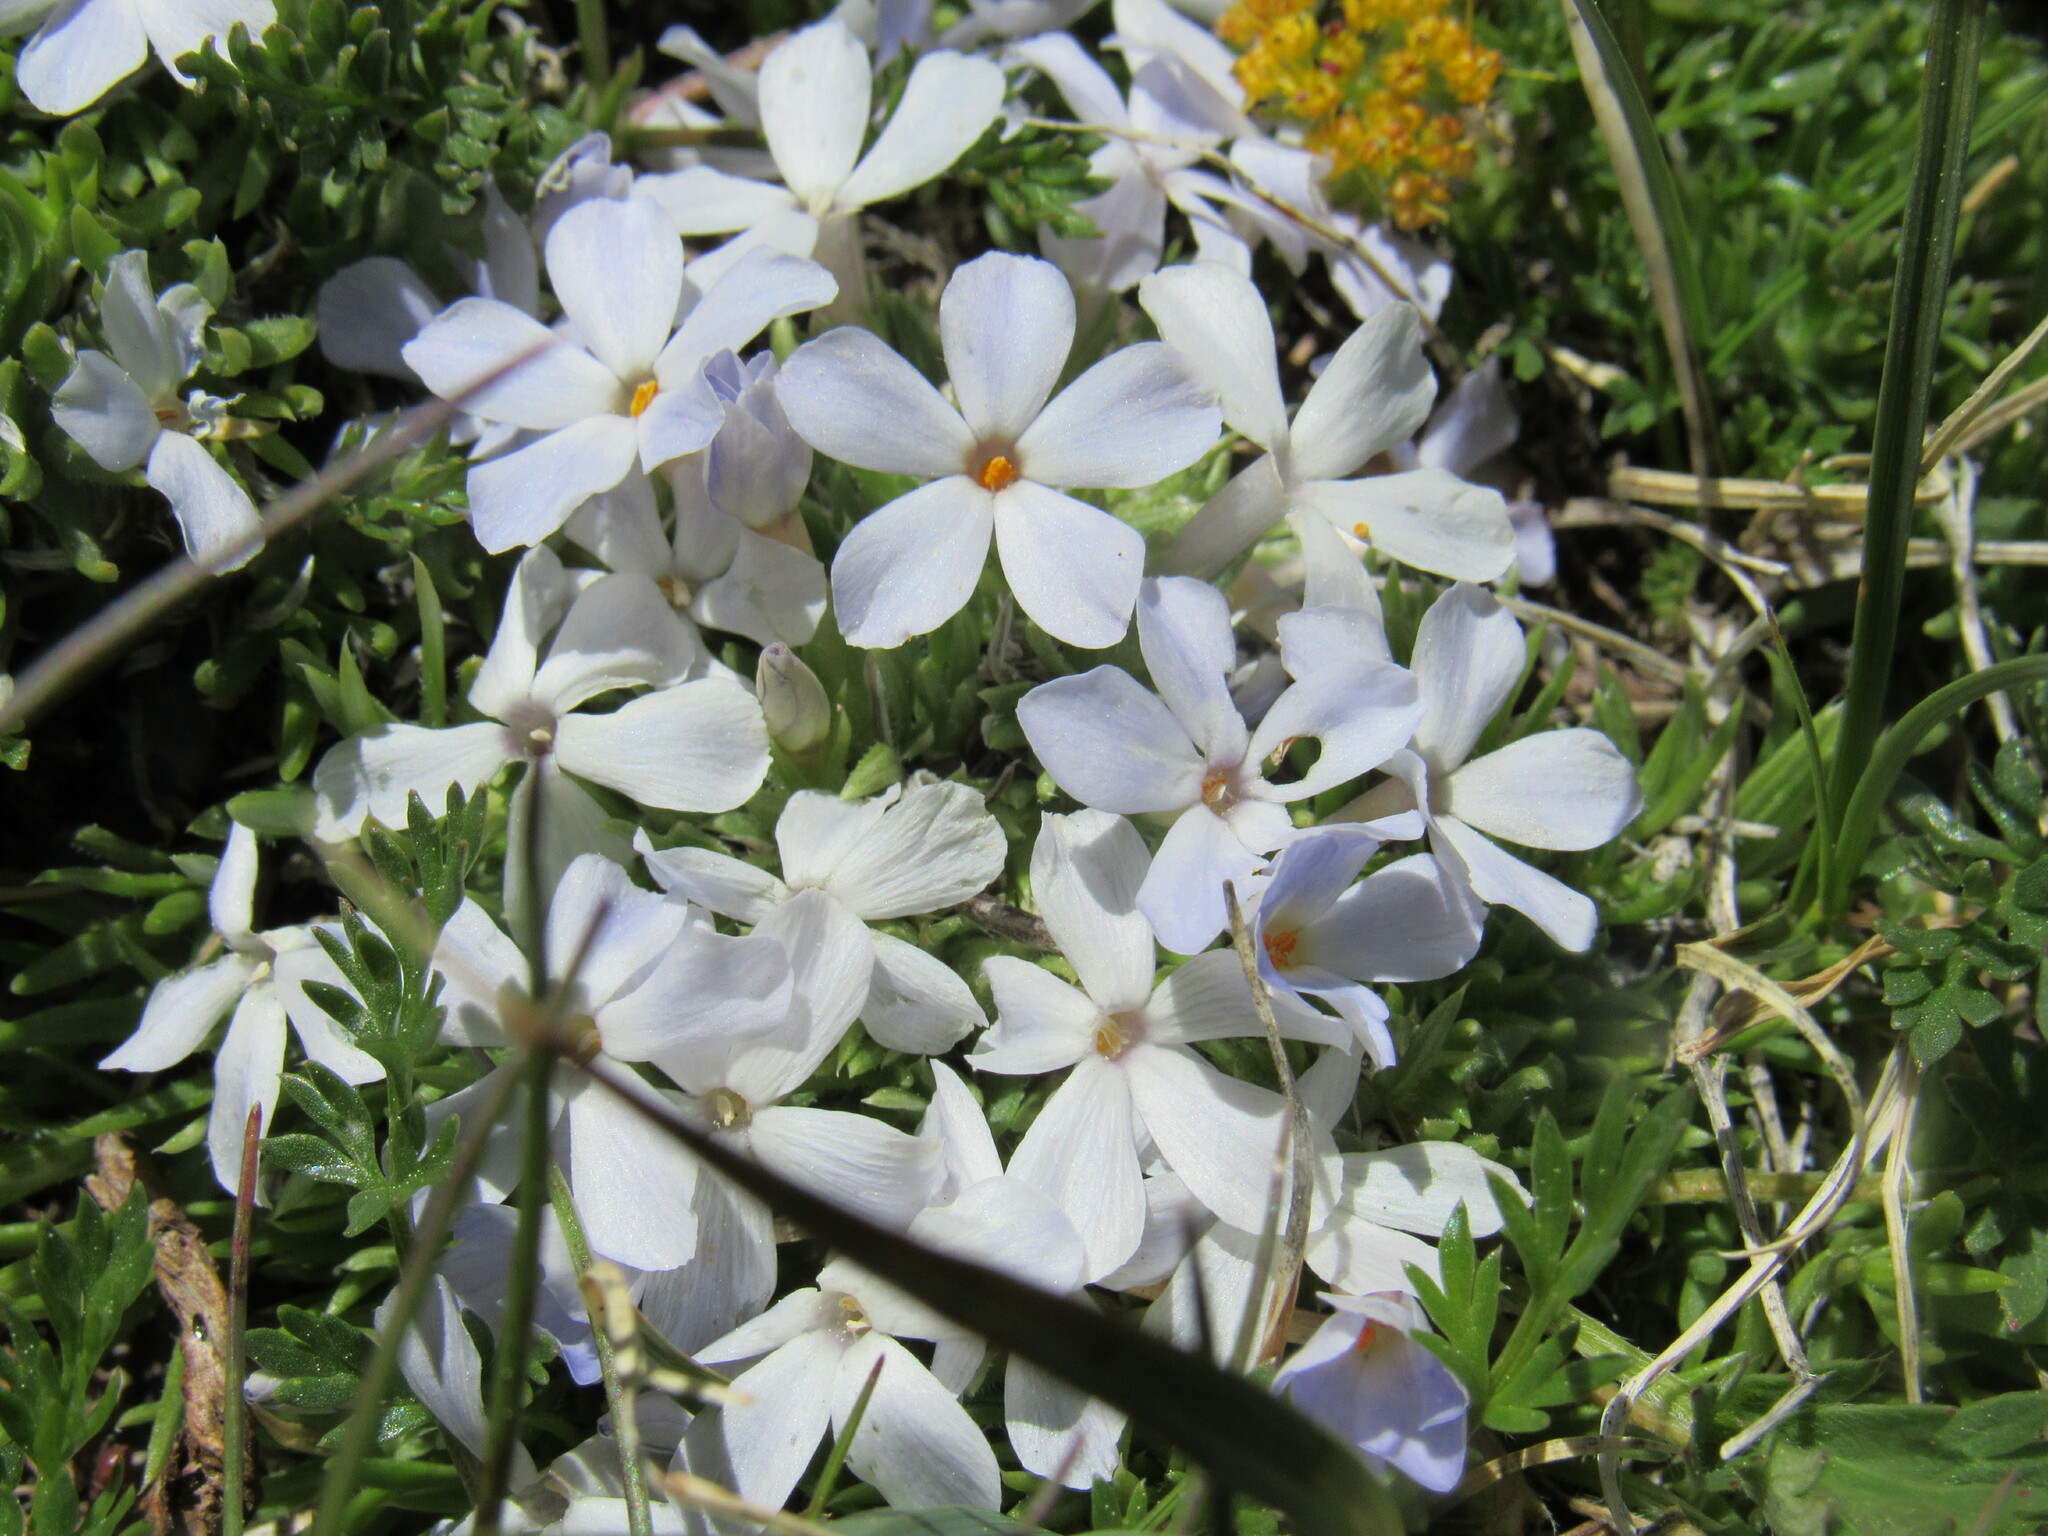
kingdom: Plantae
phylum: Tracheophyta
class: Magnoliopsida
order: Ericales
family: Polemoniaceae
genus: Phlox
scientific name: Phlox condensata
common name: Compact phlox
